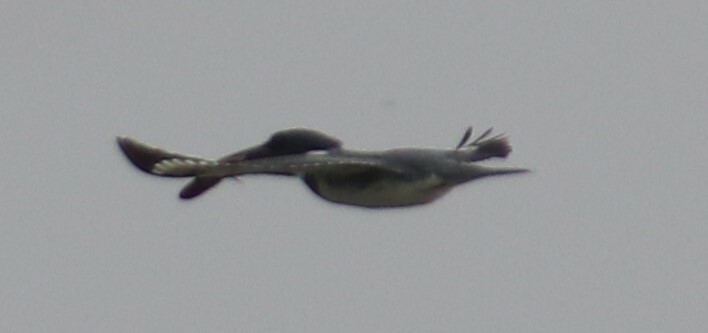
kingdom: Animalia
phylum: Chordata
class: Aves
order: Coraciiformes
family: Alcedinidae
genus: Megaceryle
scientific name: Megaceryle alcyon
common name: Belted kingfisher
